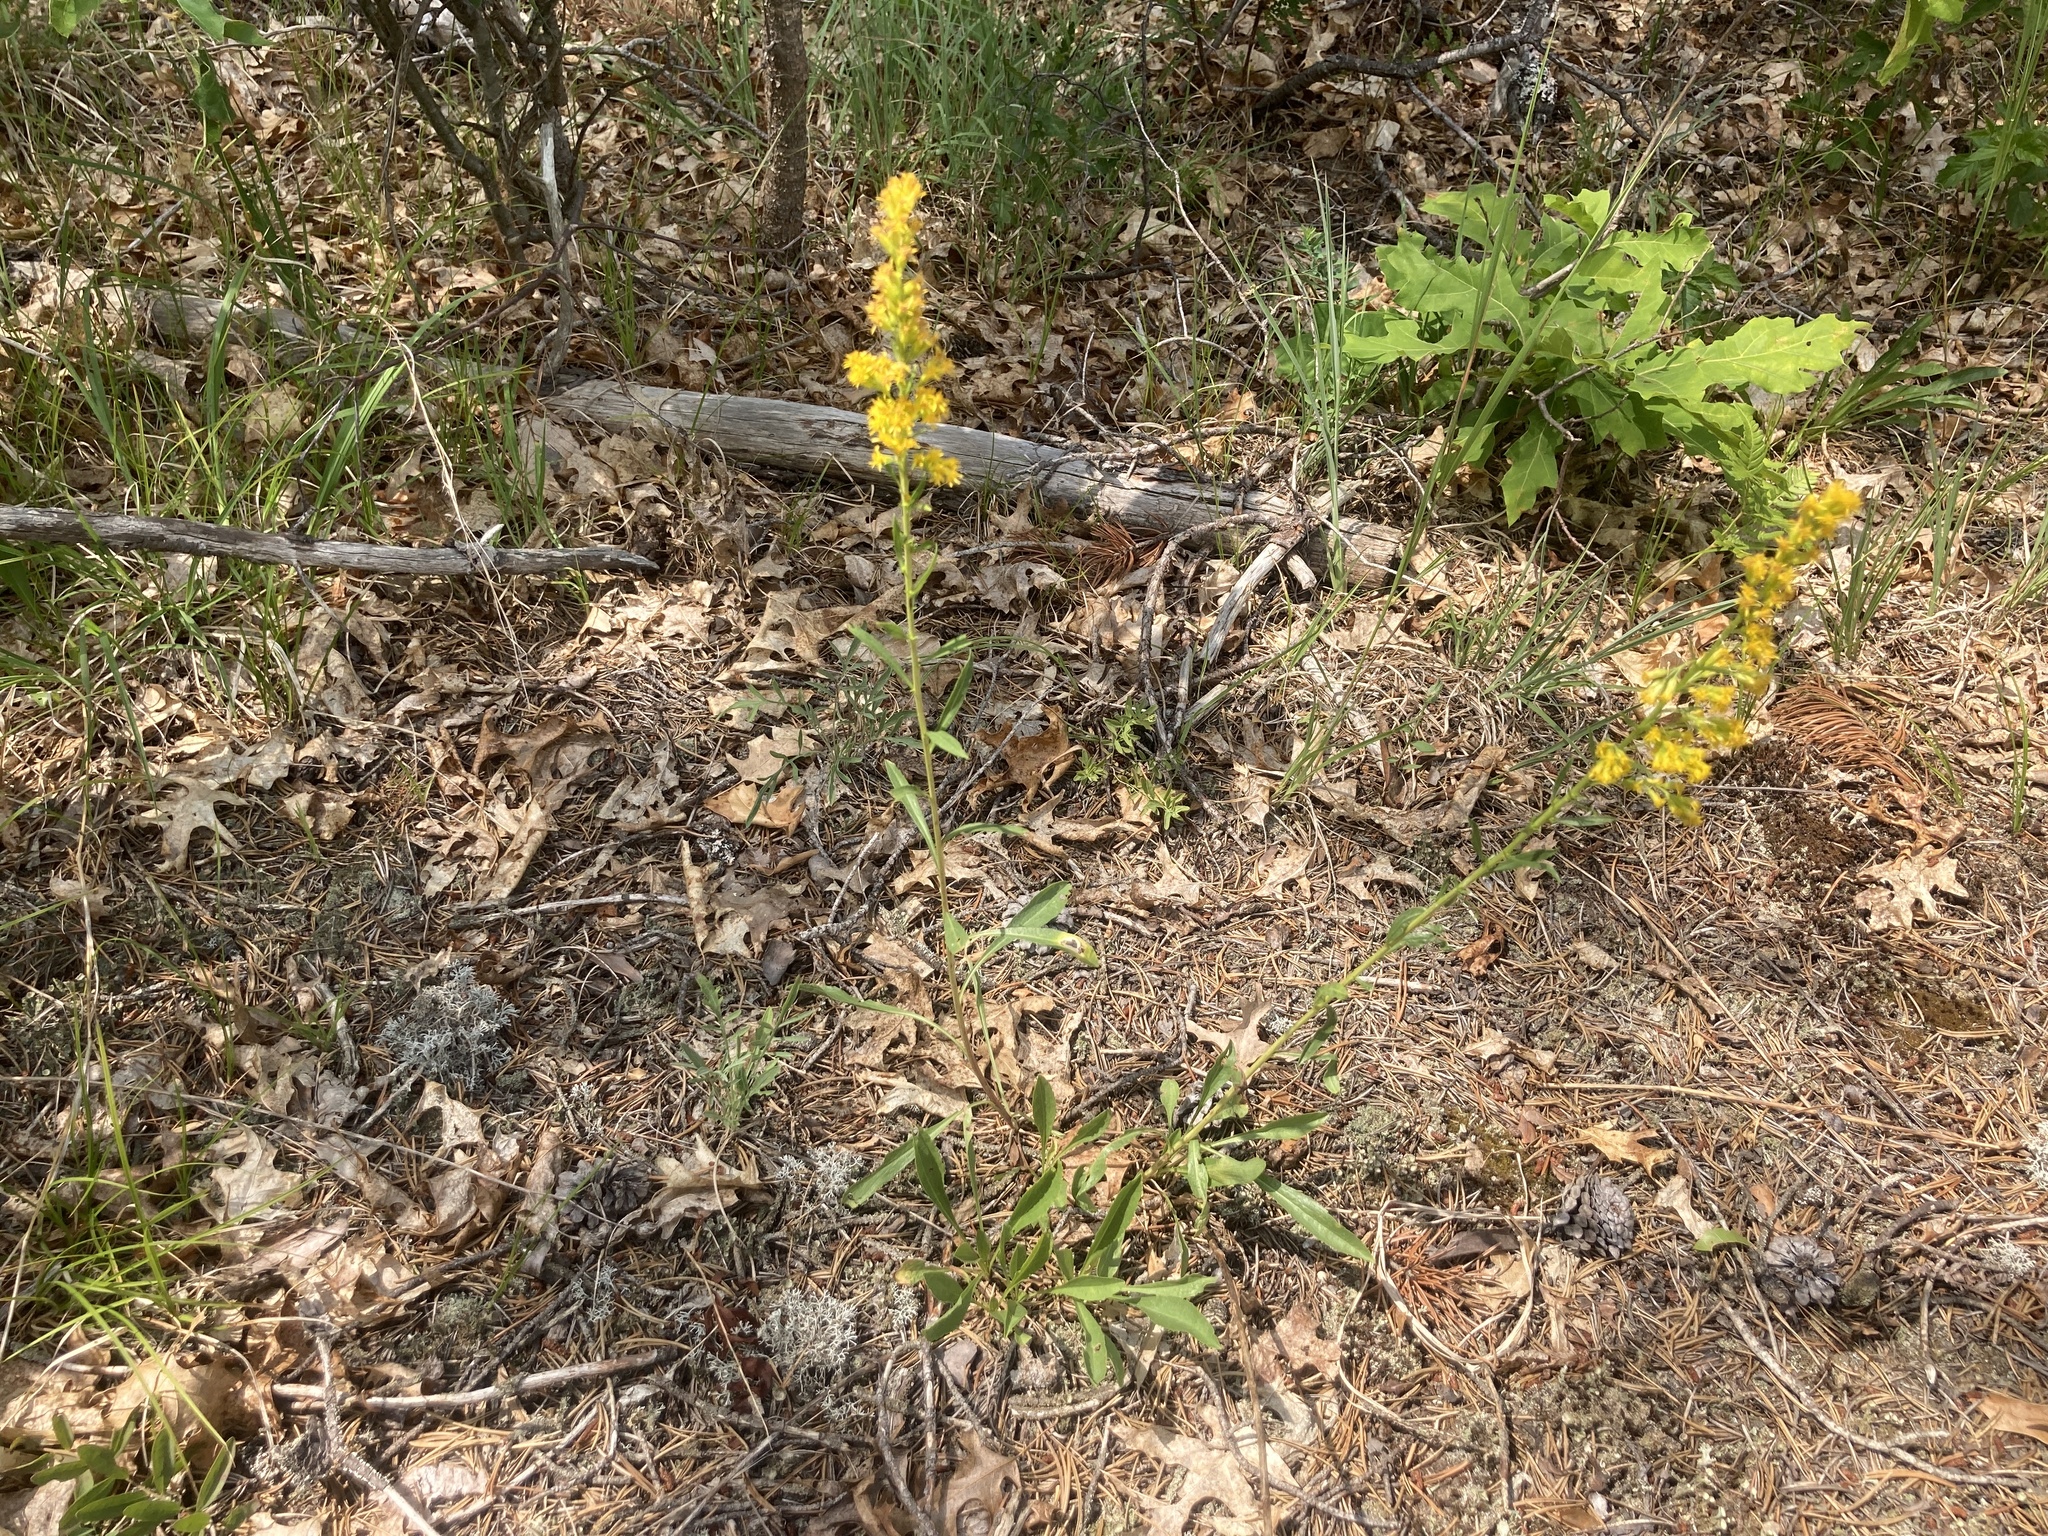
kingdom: Plantae
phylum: Tracheophyta
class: Magnoliopsida
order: Asterales
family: Asteraceae
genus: Solidago
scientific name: Solidago simplex
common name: Sticky goldenrod
